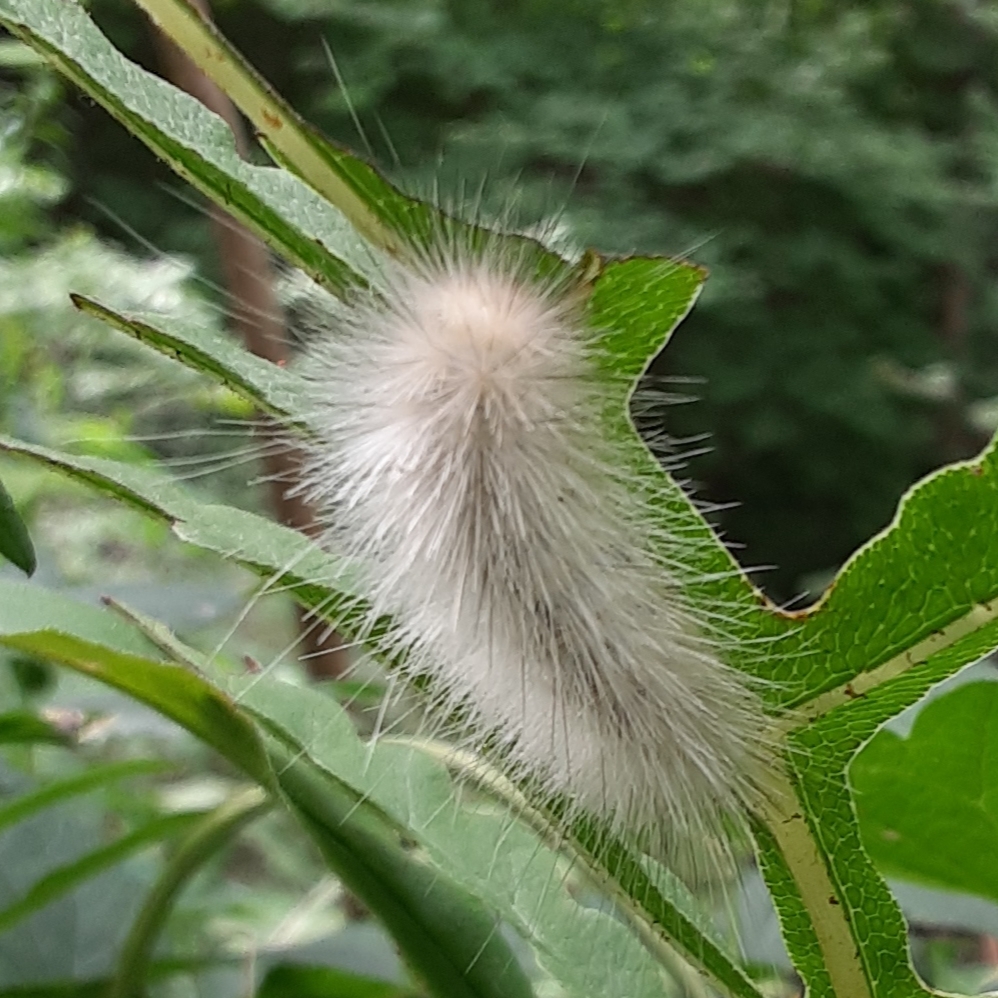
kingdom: Animalia
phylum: Arthropoda
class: Insecta
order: Lepidoptera
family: Erebidae
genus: Spilosoma
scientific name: Spilosoma virginica
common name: Virginia tiger moth
